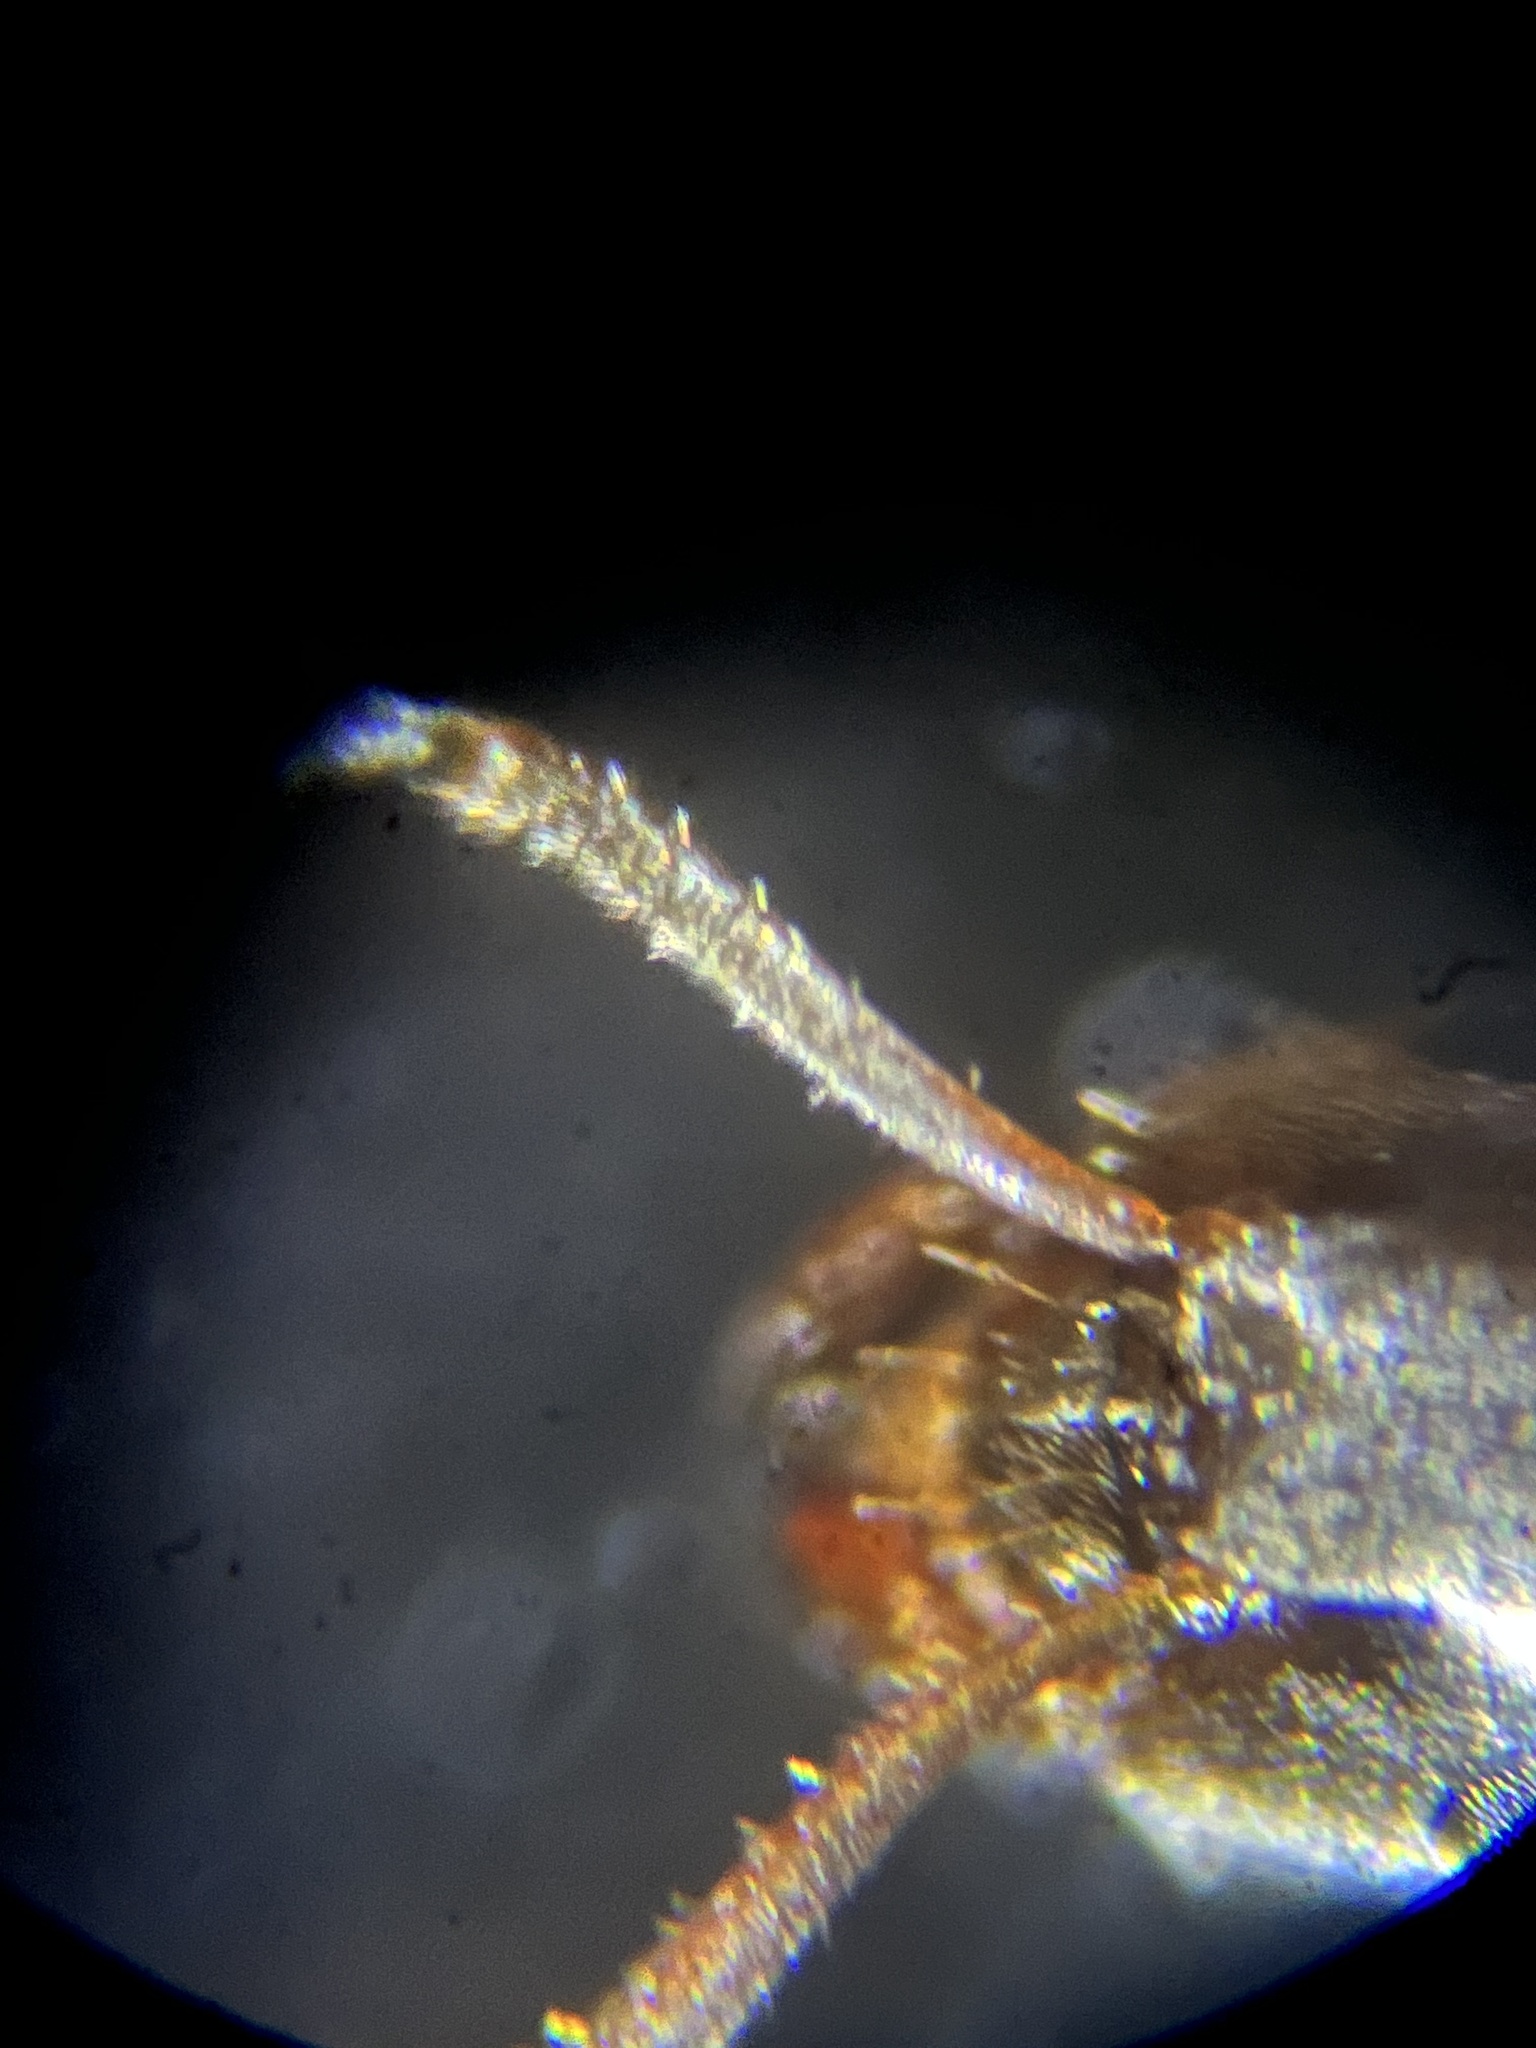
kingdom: Animalia
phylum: Arthropoda
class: Insecta
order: Hymenoptera
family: Formicidae
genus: Lasius
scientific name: Lasius niger
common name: Small black ant
